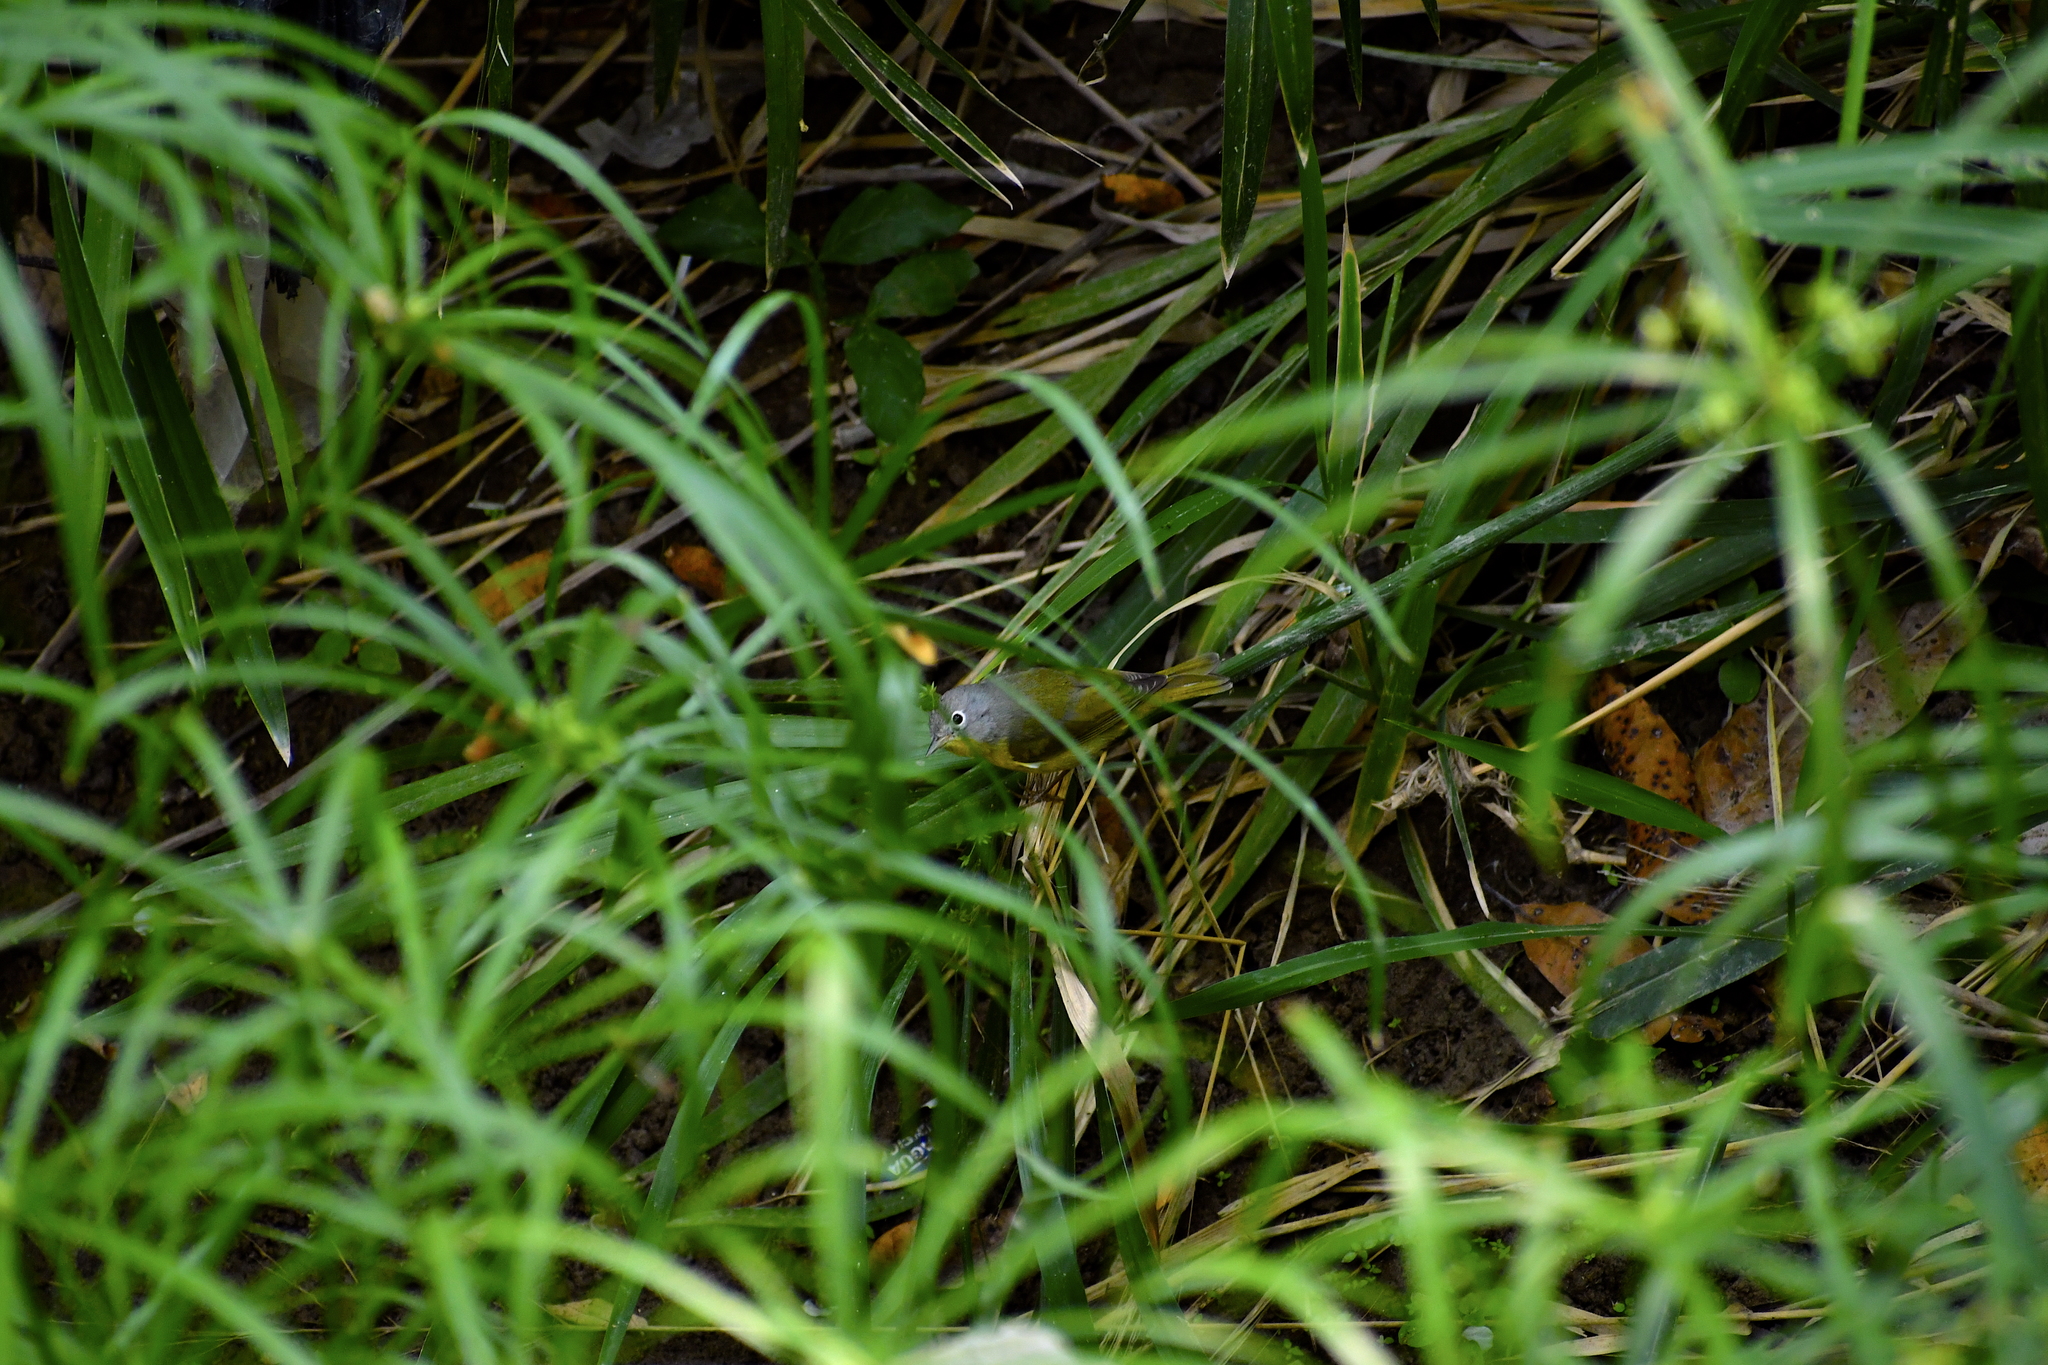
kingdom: Animalia
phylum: Chordata
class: Aves
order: Passeriformes
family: Parulidae
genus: Leiothlypis
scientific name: Leiothlypis ruficapilla
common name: Nashville warbler
